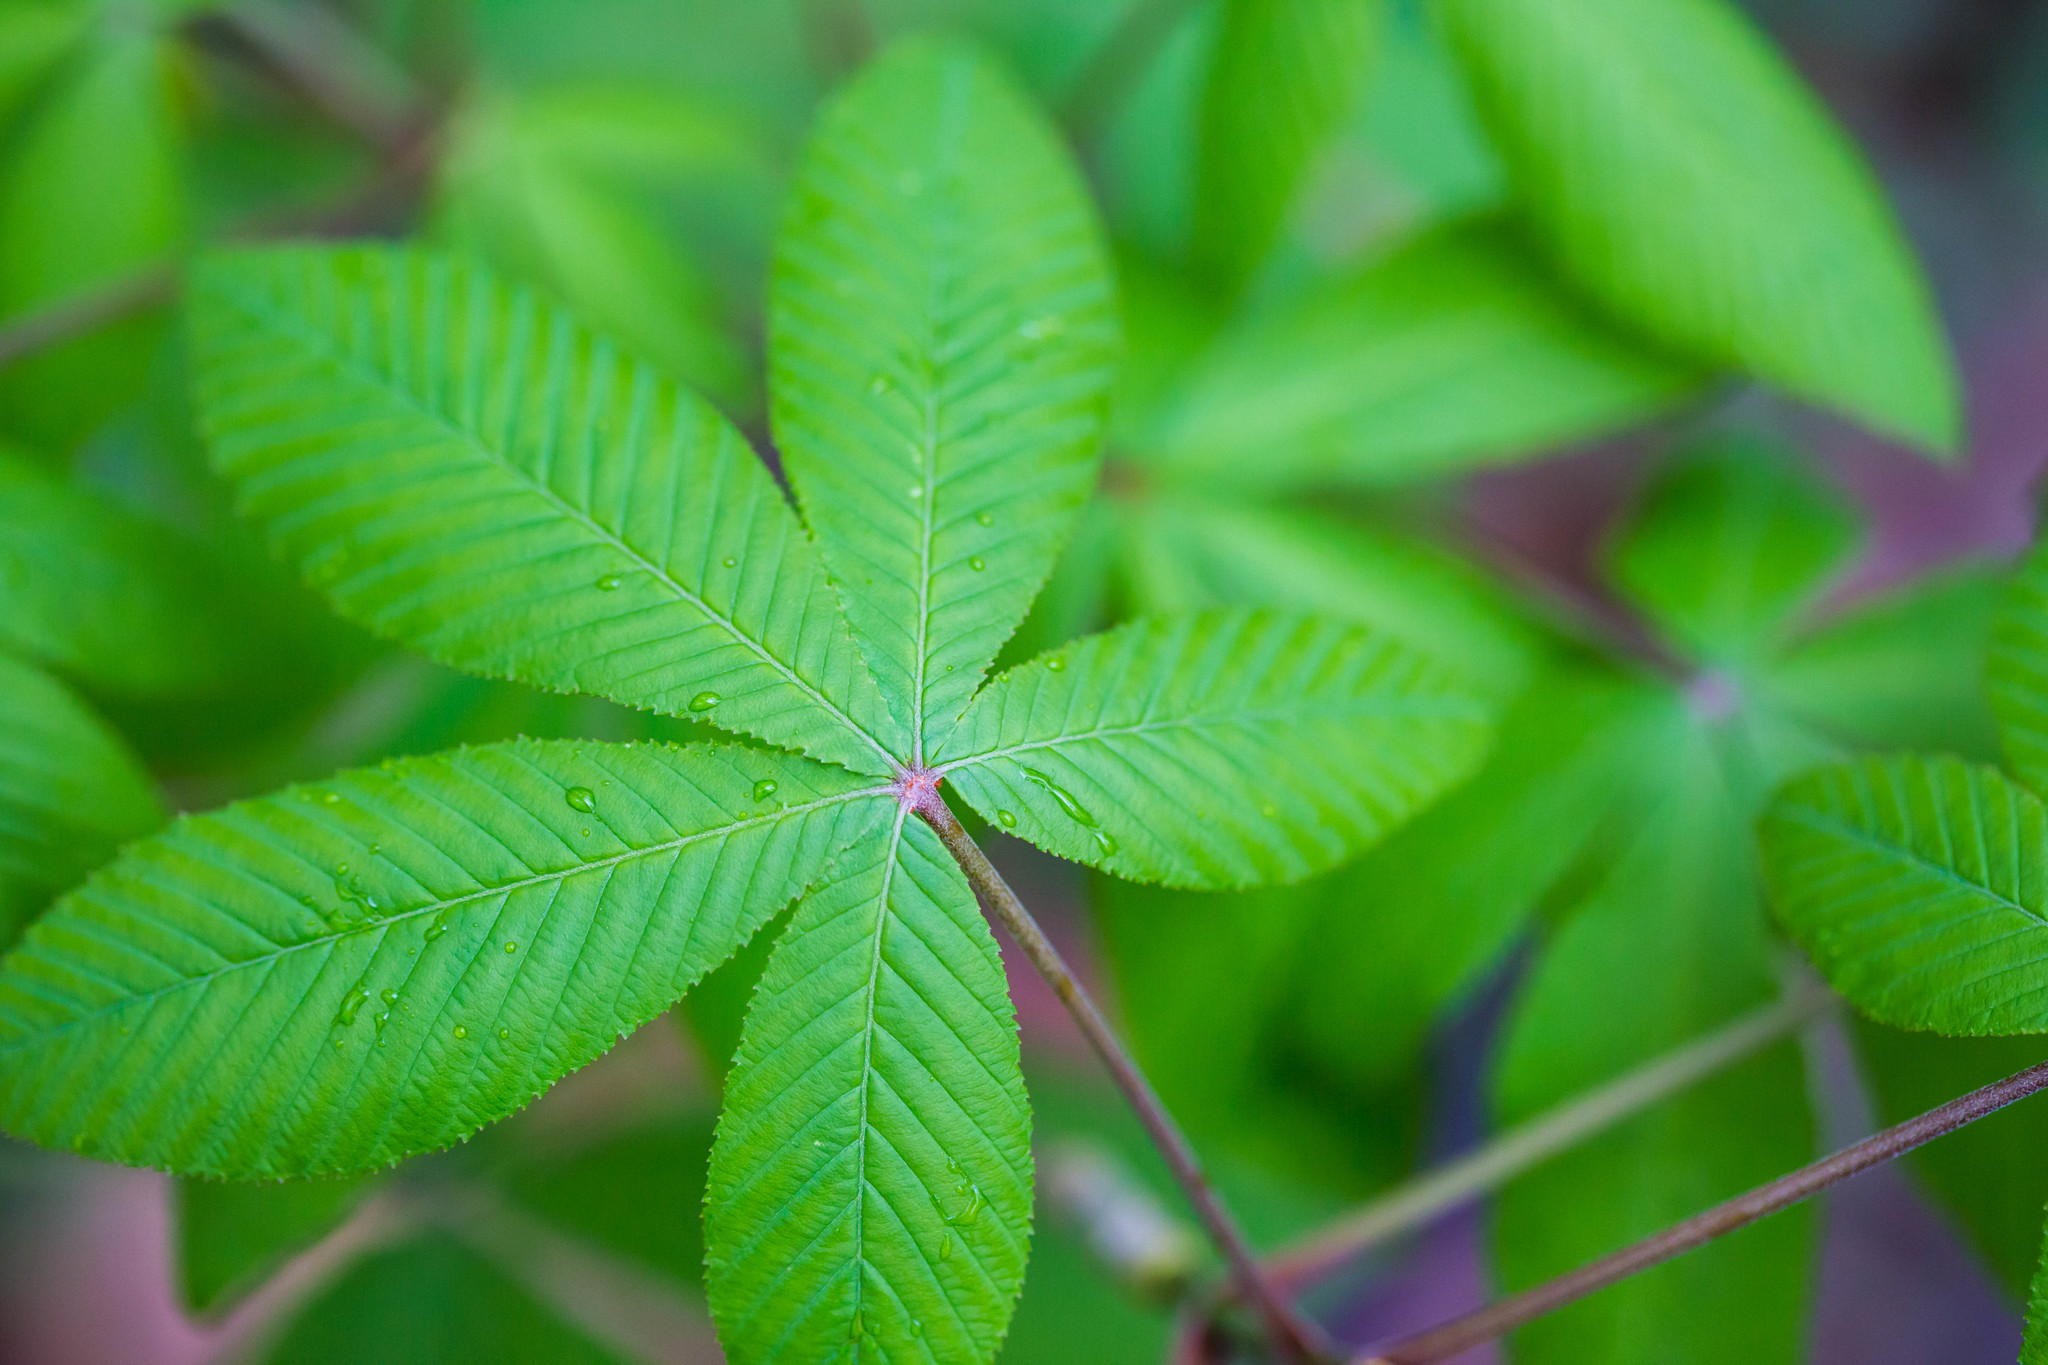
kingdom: Plantae
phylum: Tracheophyta
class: Magnoliopsida
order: Sapindales
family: Sapindaceae
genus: Aesculus
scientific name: Aesculus pavia
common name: Red buckeye
